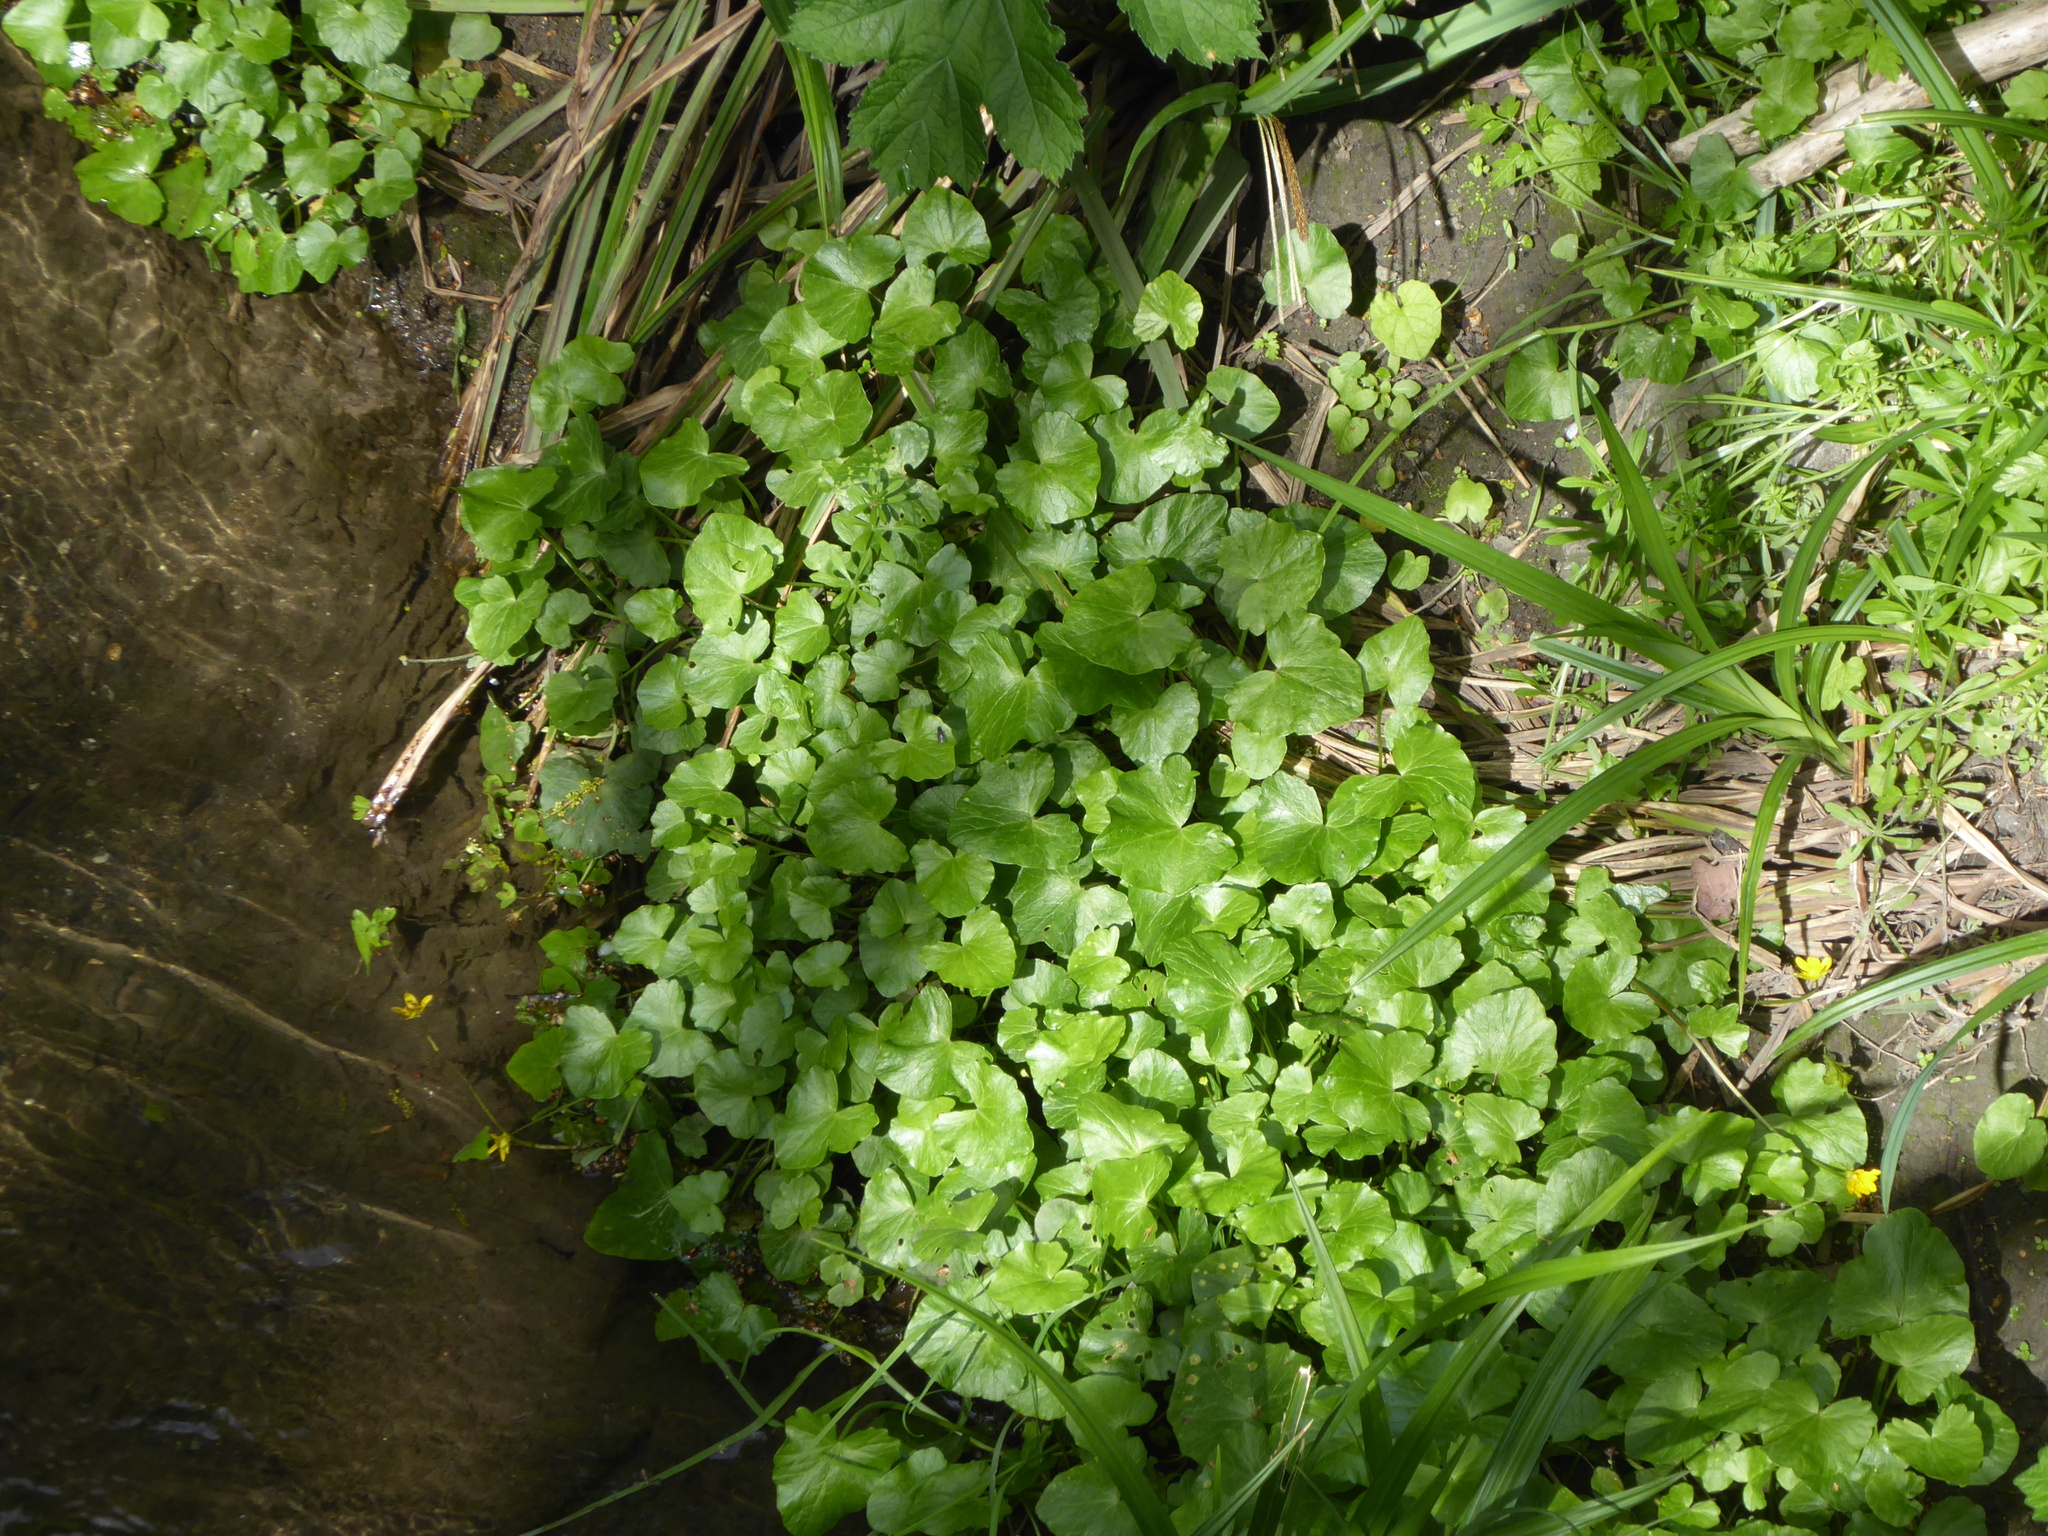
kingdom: Plantae
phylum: Tracheophyta
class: Magnoliopsida
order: Ranunculales
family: Ranunculaceae
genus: Ficaria
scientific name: Ficaria verna
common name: Lesser celandine
